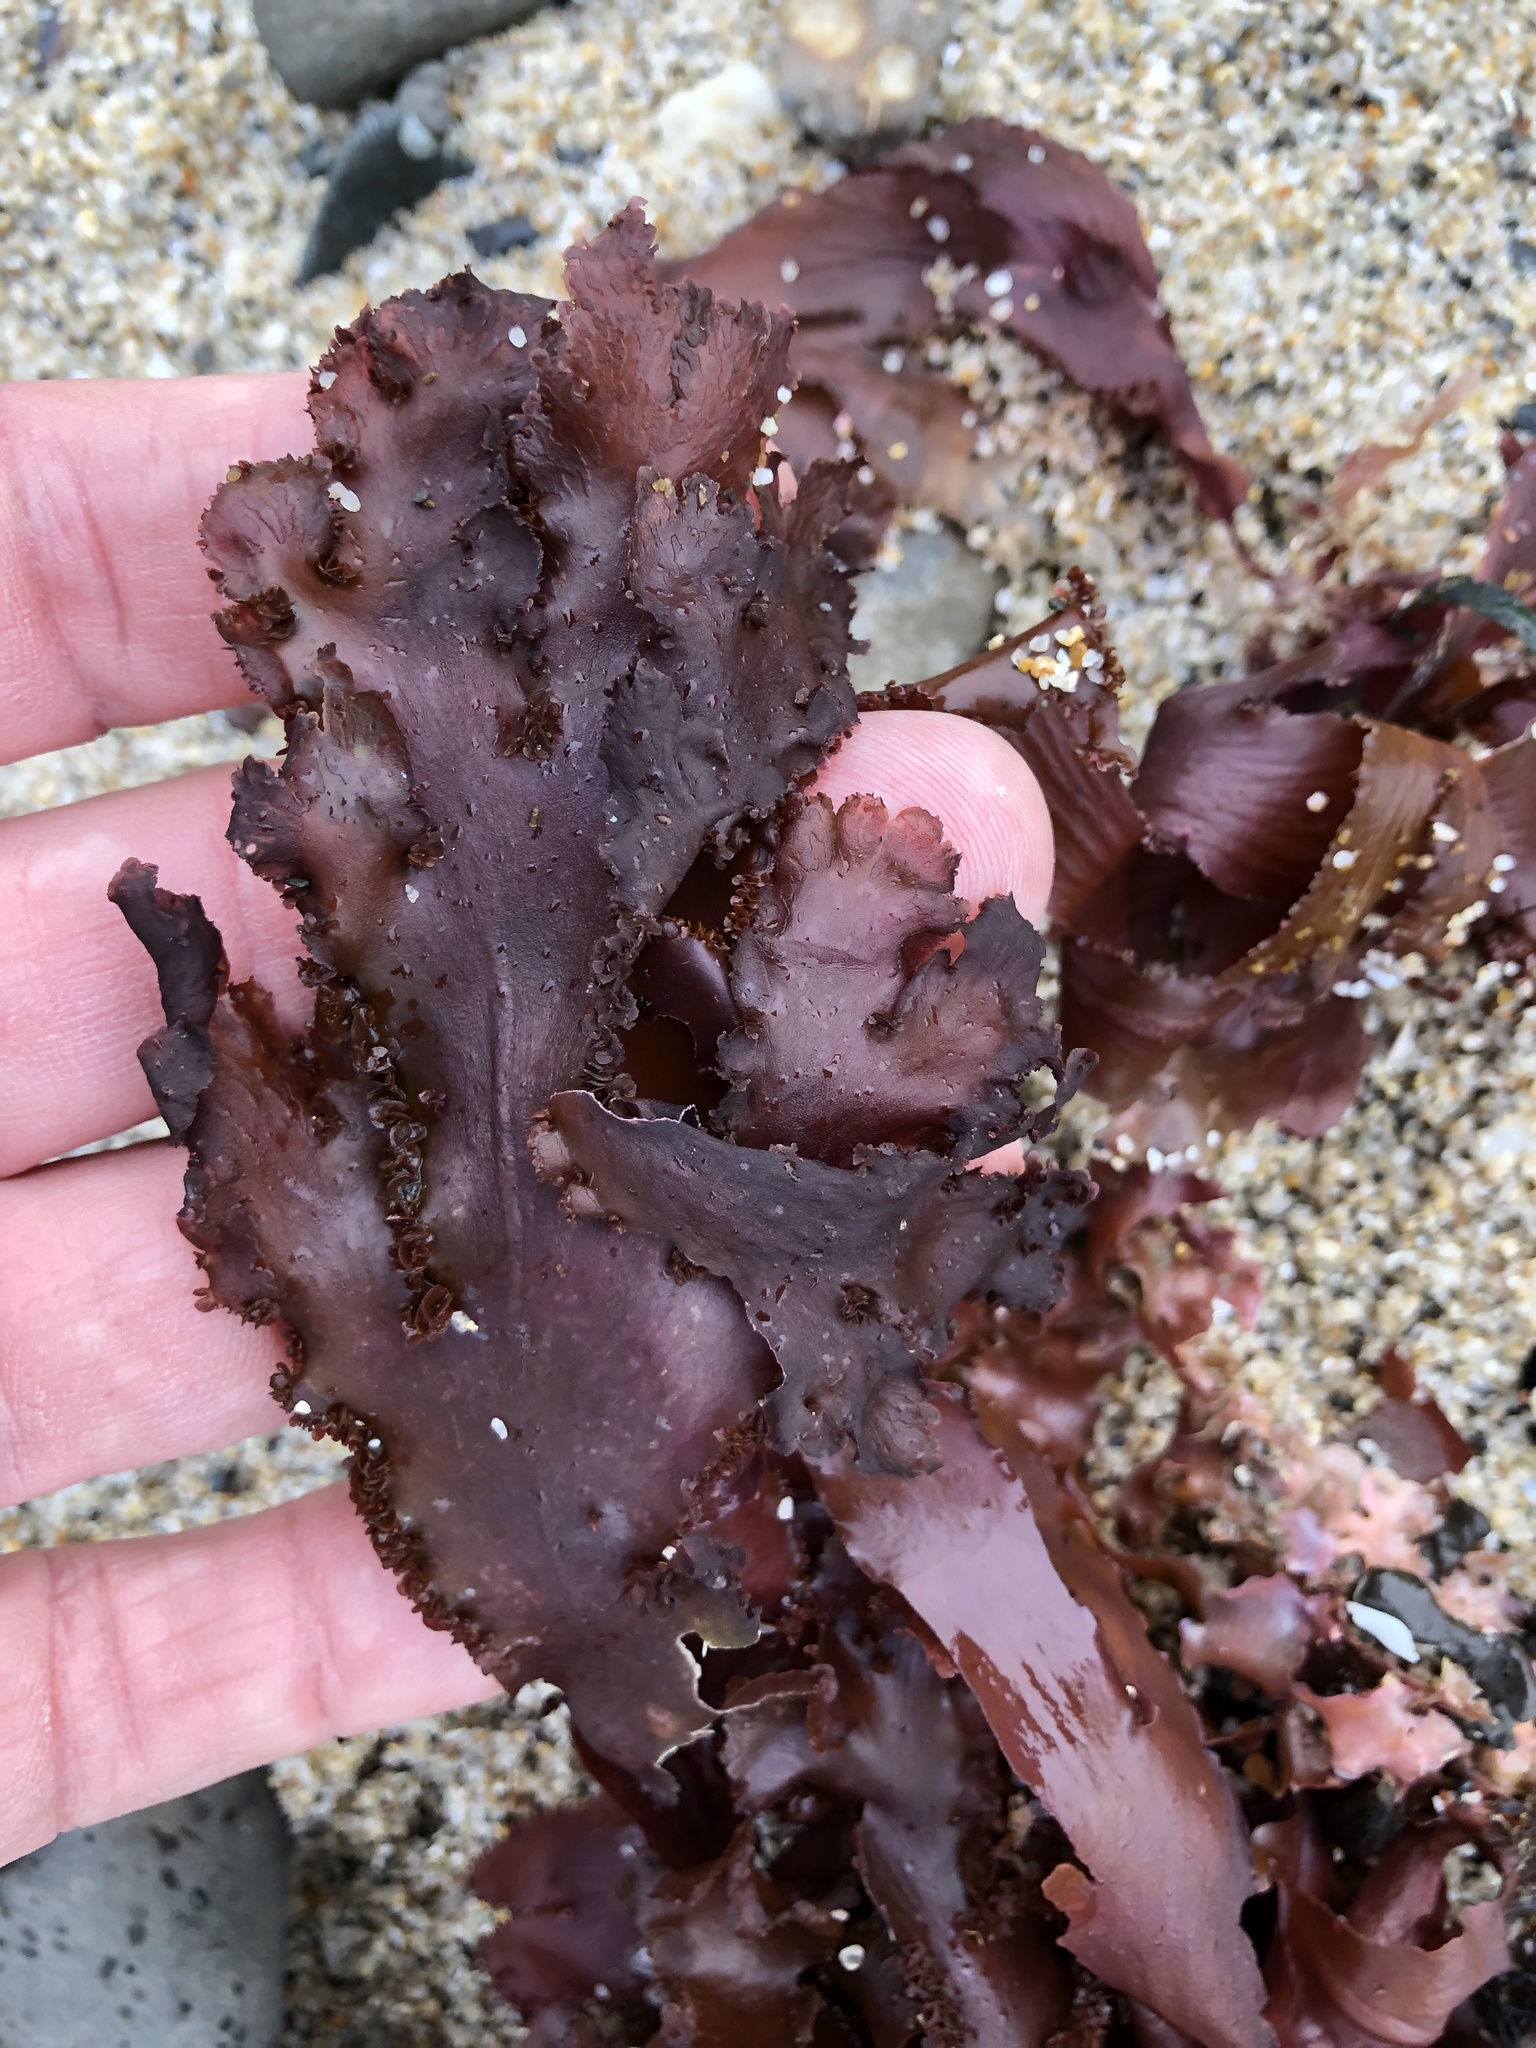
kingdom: Plantae
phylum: Rhodophyta
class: Florideophyceae
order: Ceramiales
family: Delesseriaceae
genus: Cryptopleura
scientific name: Cryptopleura ruprechtiana
